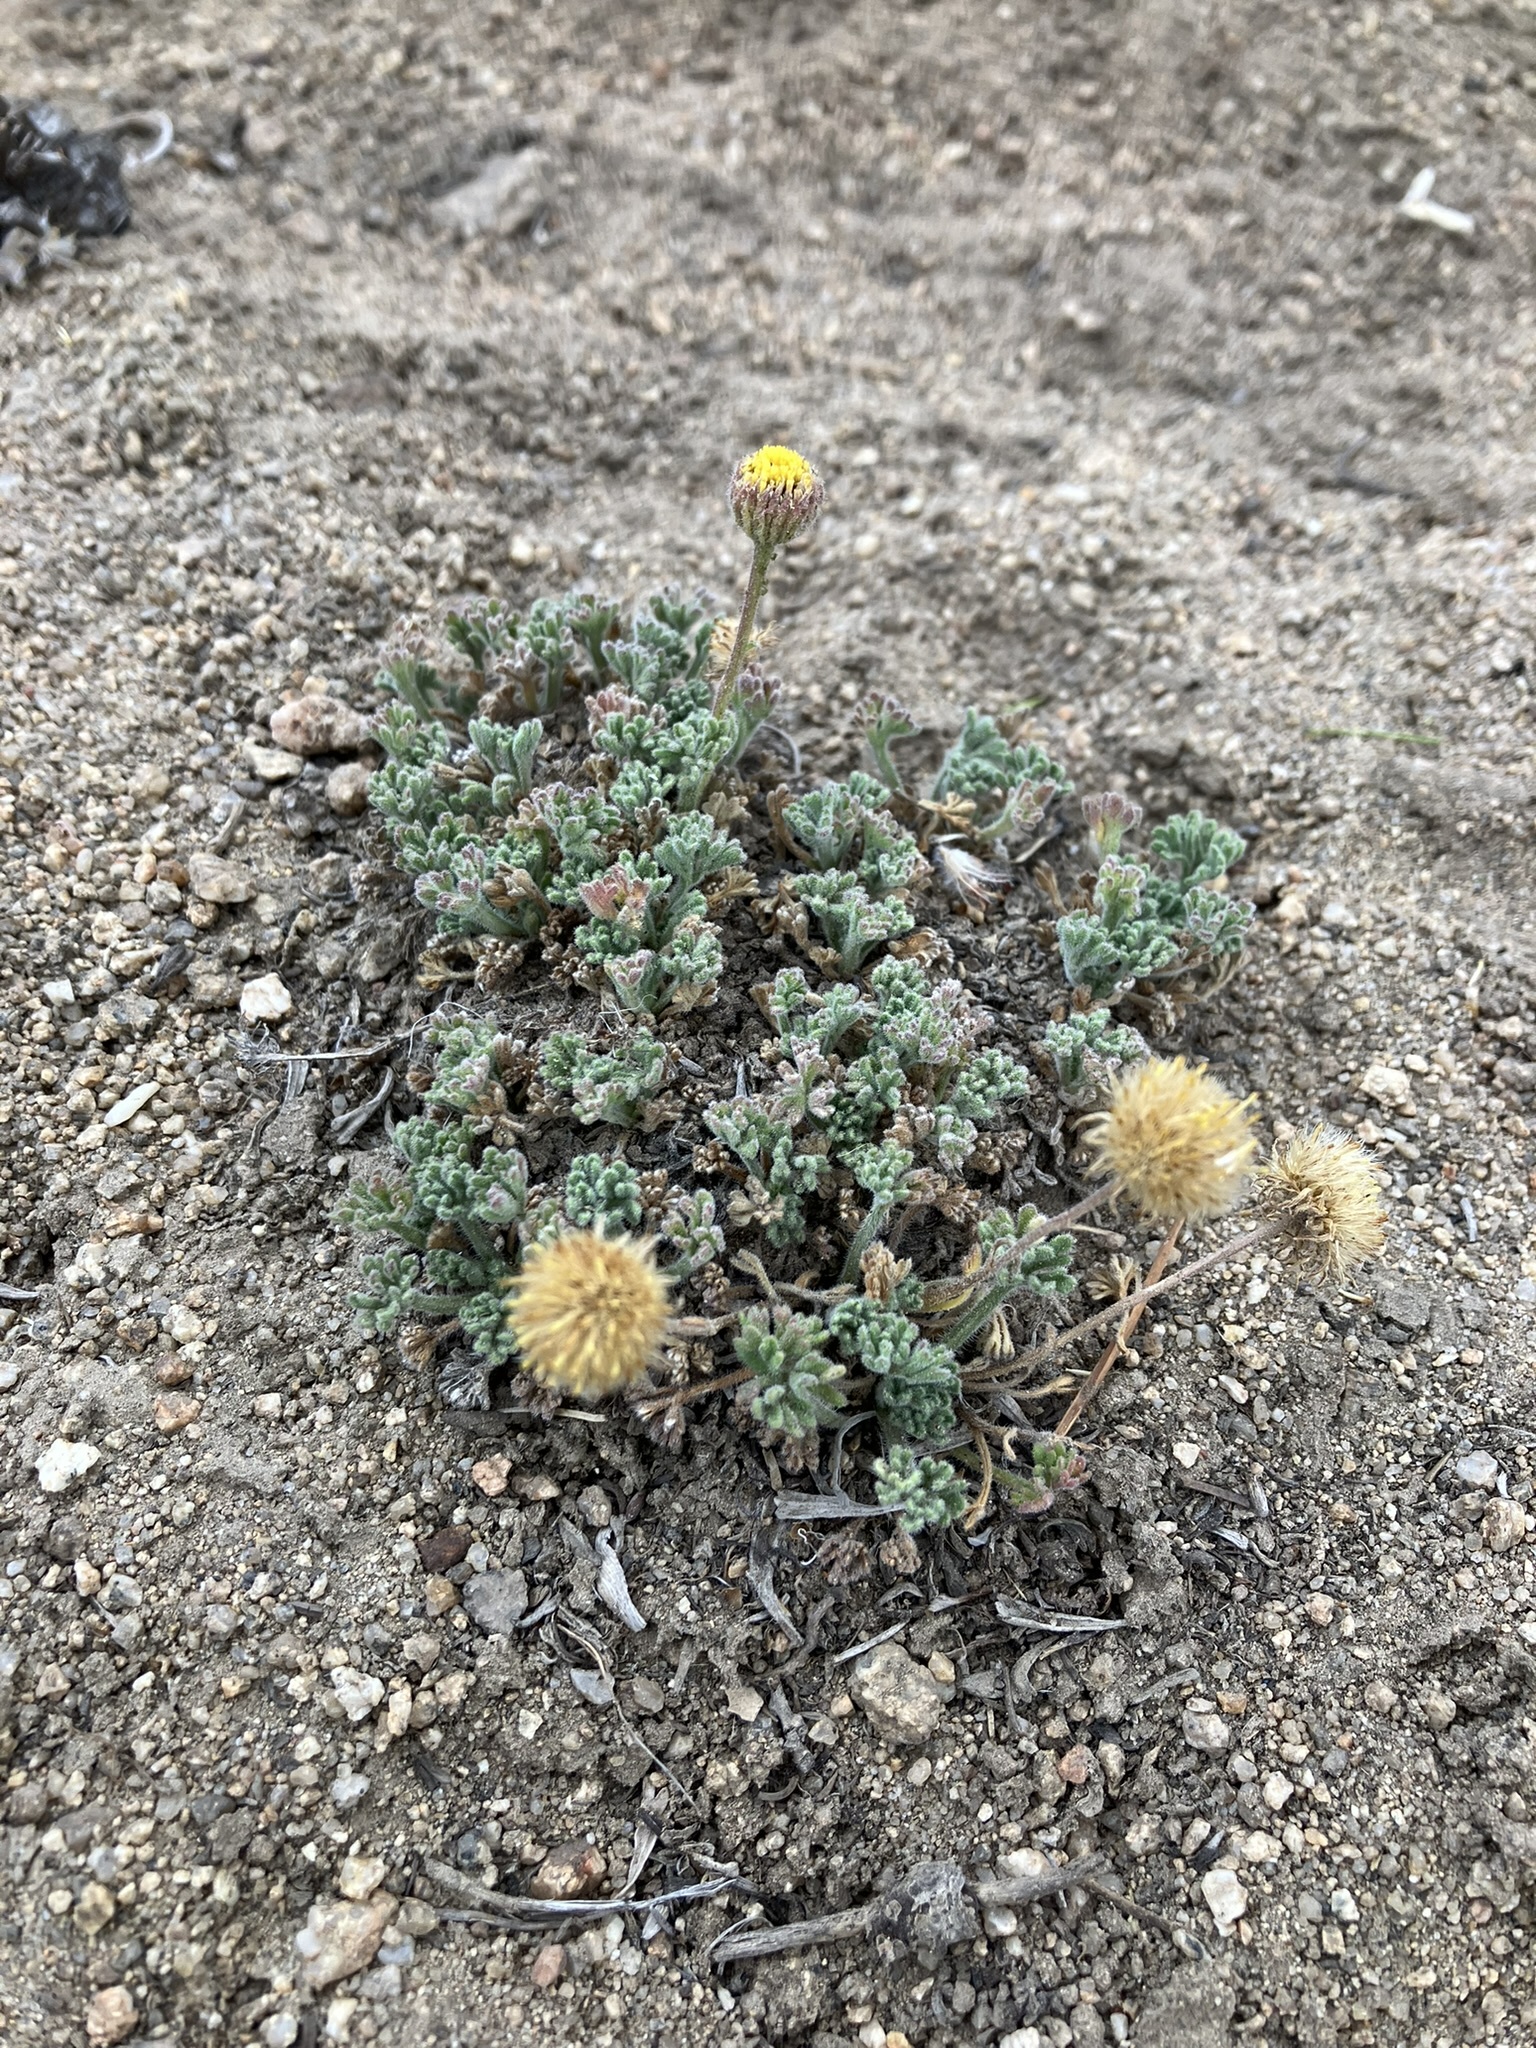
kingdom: Plantae
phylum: Tracheophyta
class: Magnoliopsida
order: Asterales
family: Asteraceae
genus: Erigeron
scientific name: Erigeron compositus
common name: Dwarf mountain fleabane
